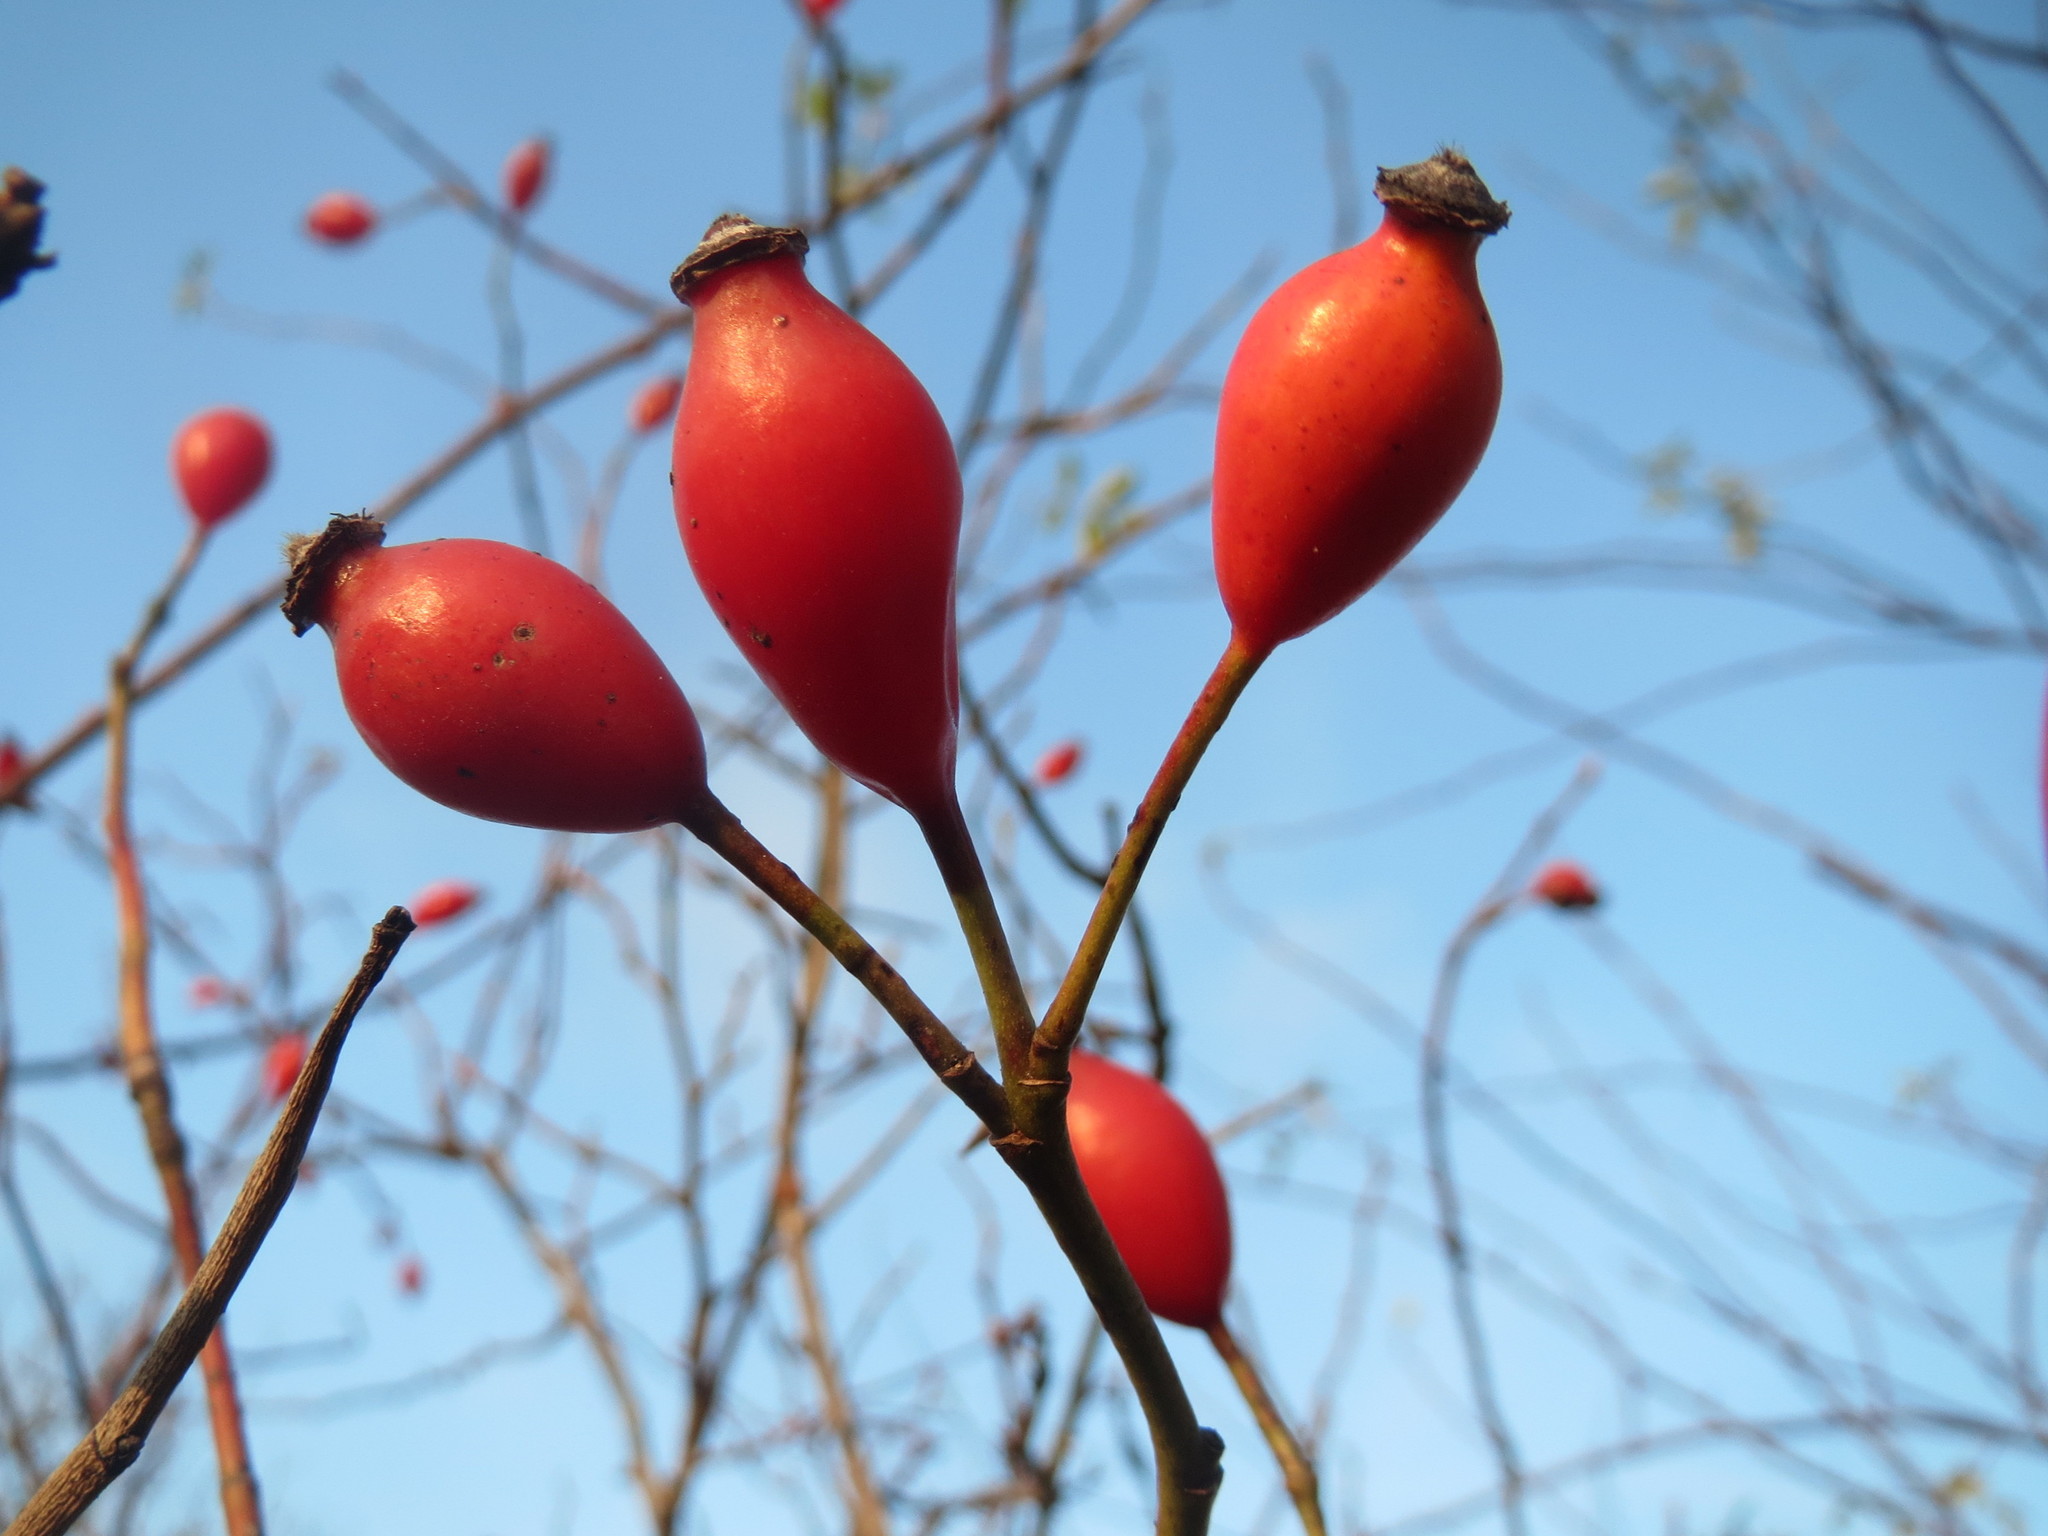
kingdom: Plantae
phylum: Tracheophyta
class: Magnoliopsida
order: Rosales
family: Rosaceae
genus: Rosa
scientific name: Rosa canina
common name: Dog rose
